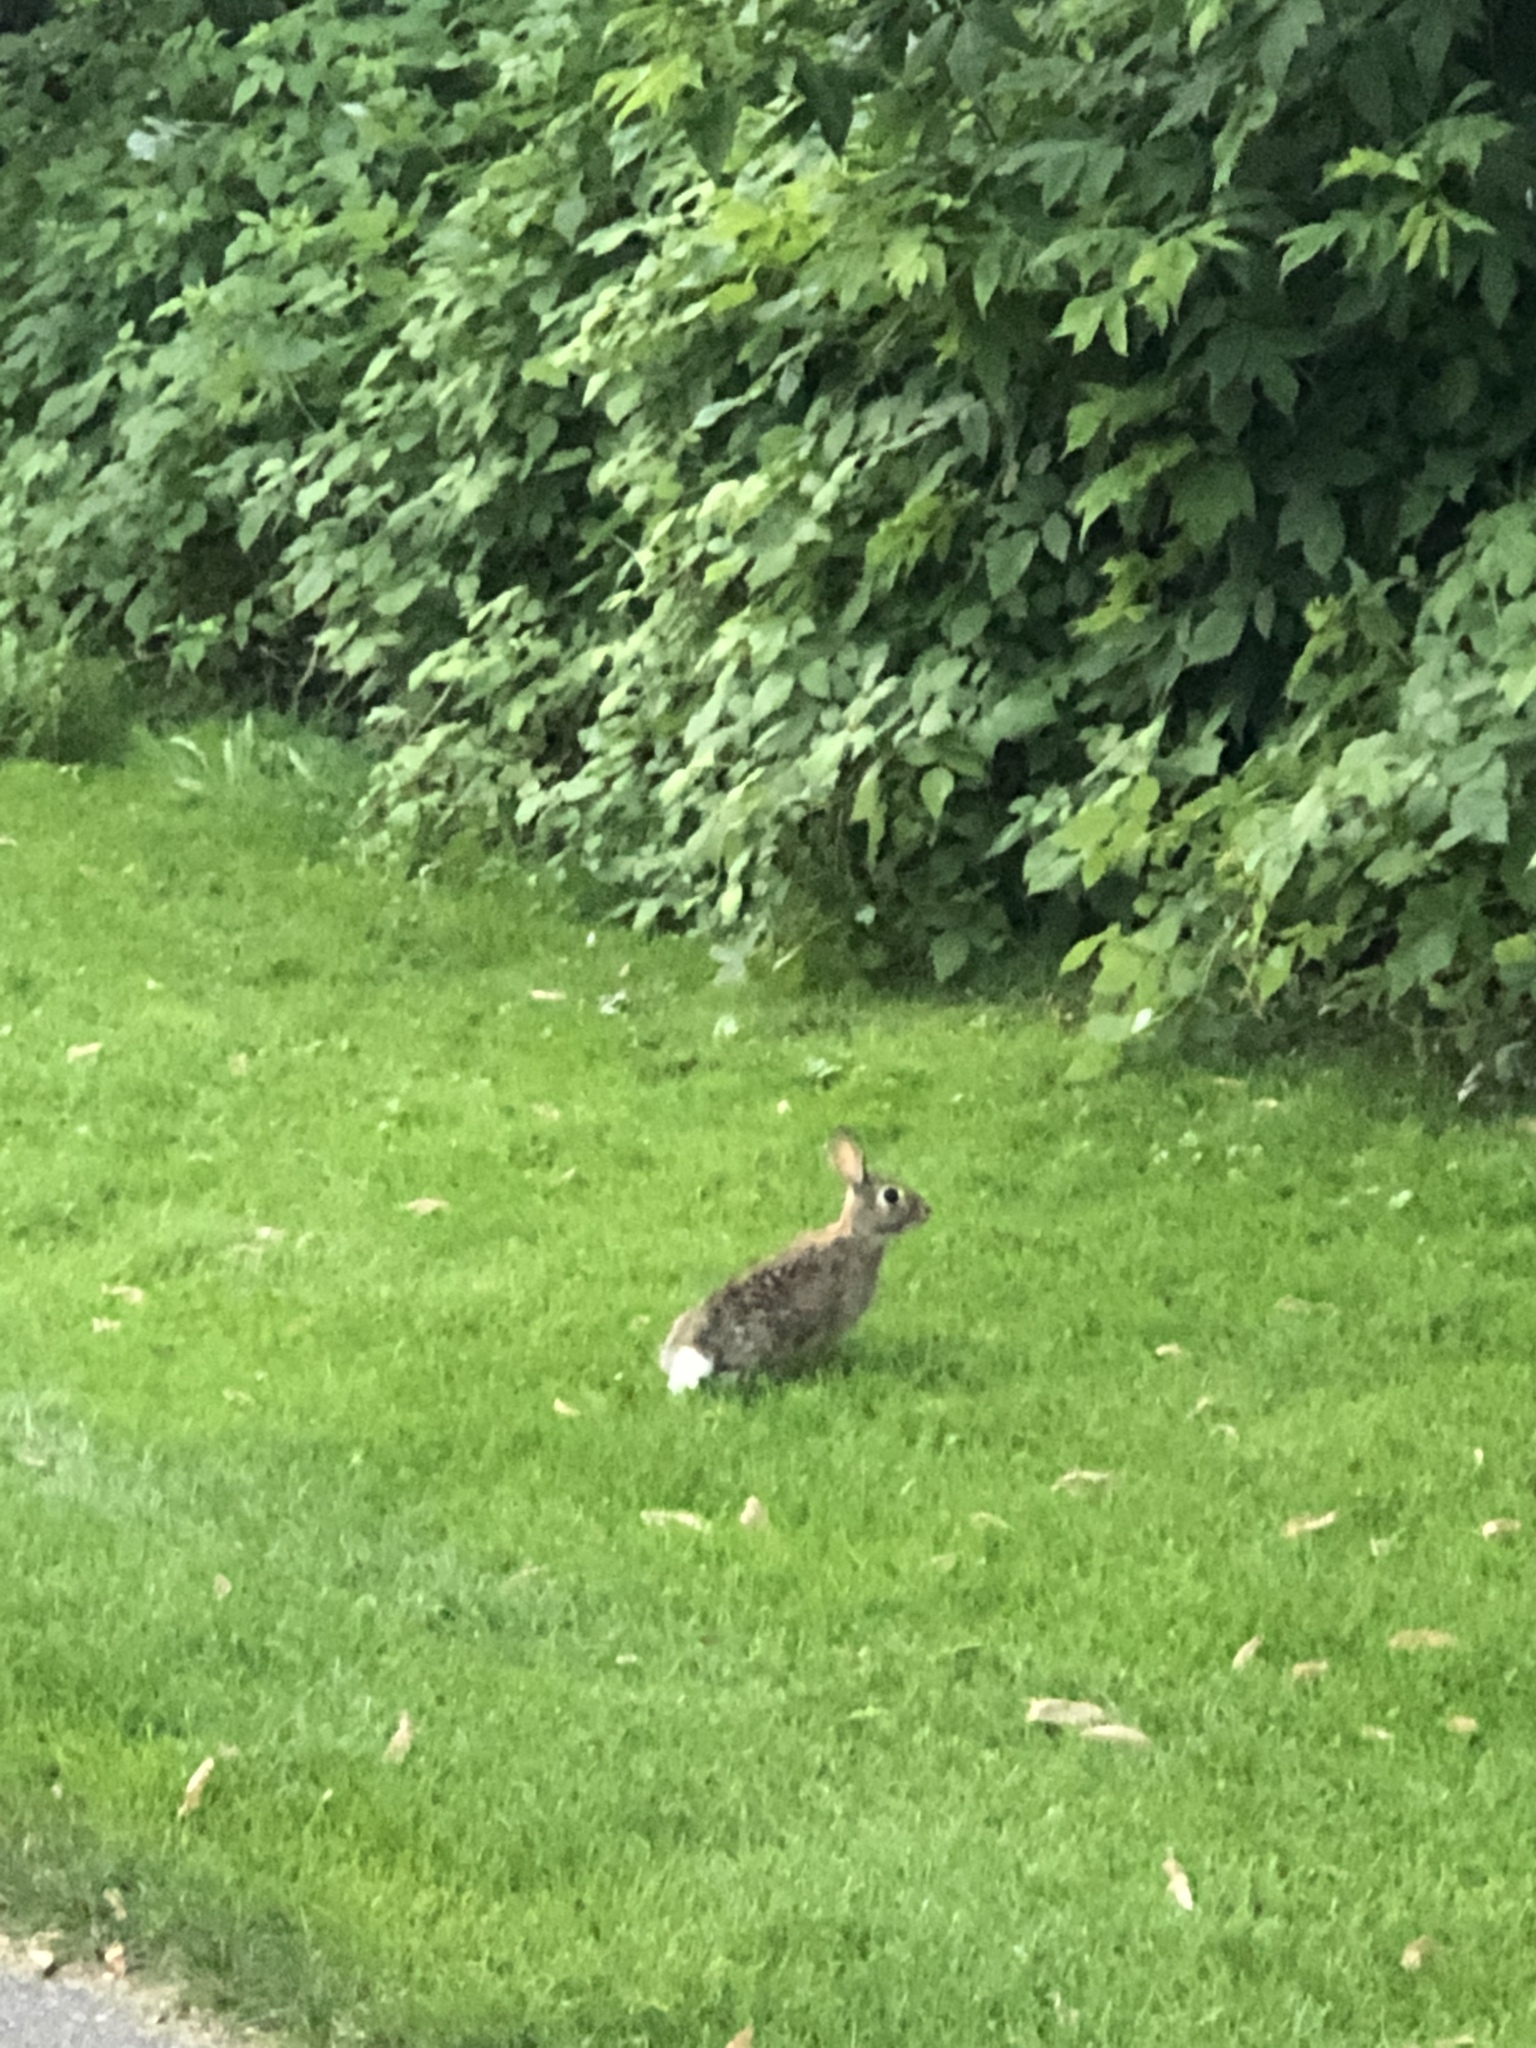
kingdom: Animalia
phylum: Chordata
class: Mammalia
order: Lagomorpha
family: Leporidae
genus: Sylvilagus
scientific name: Sylvilagus floridanus
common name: Eastern cottontail
